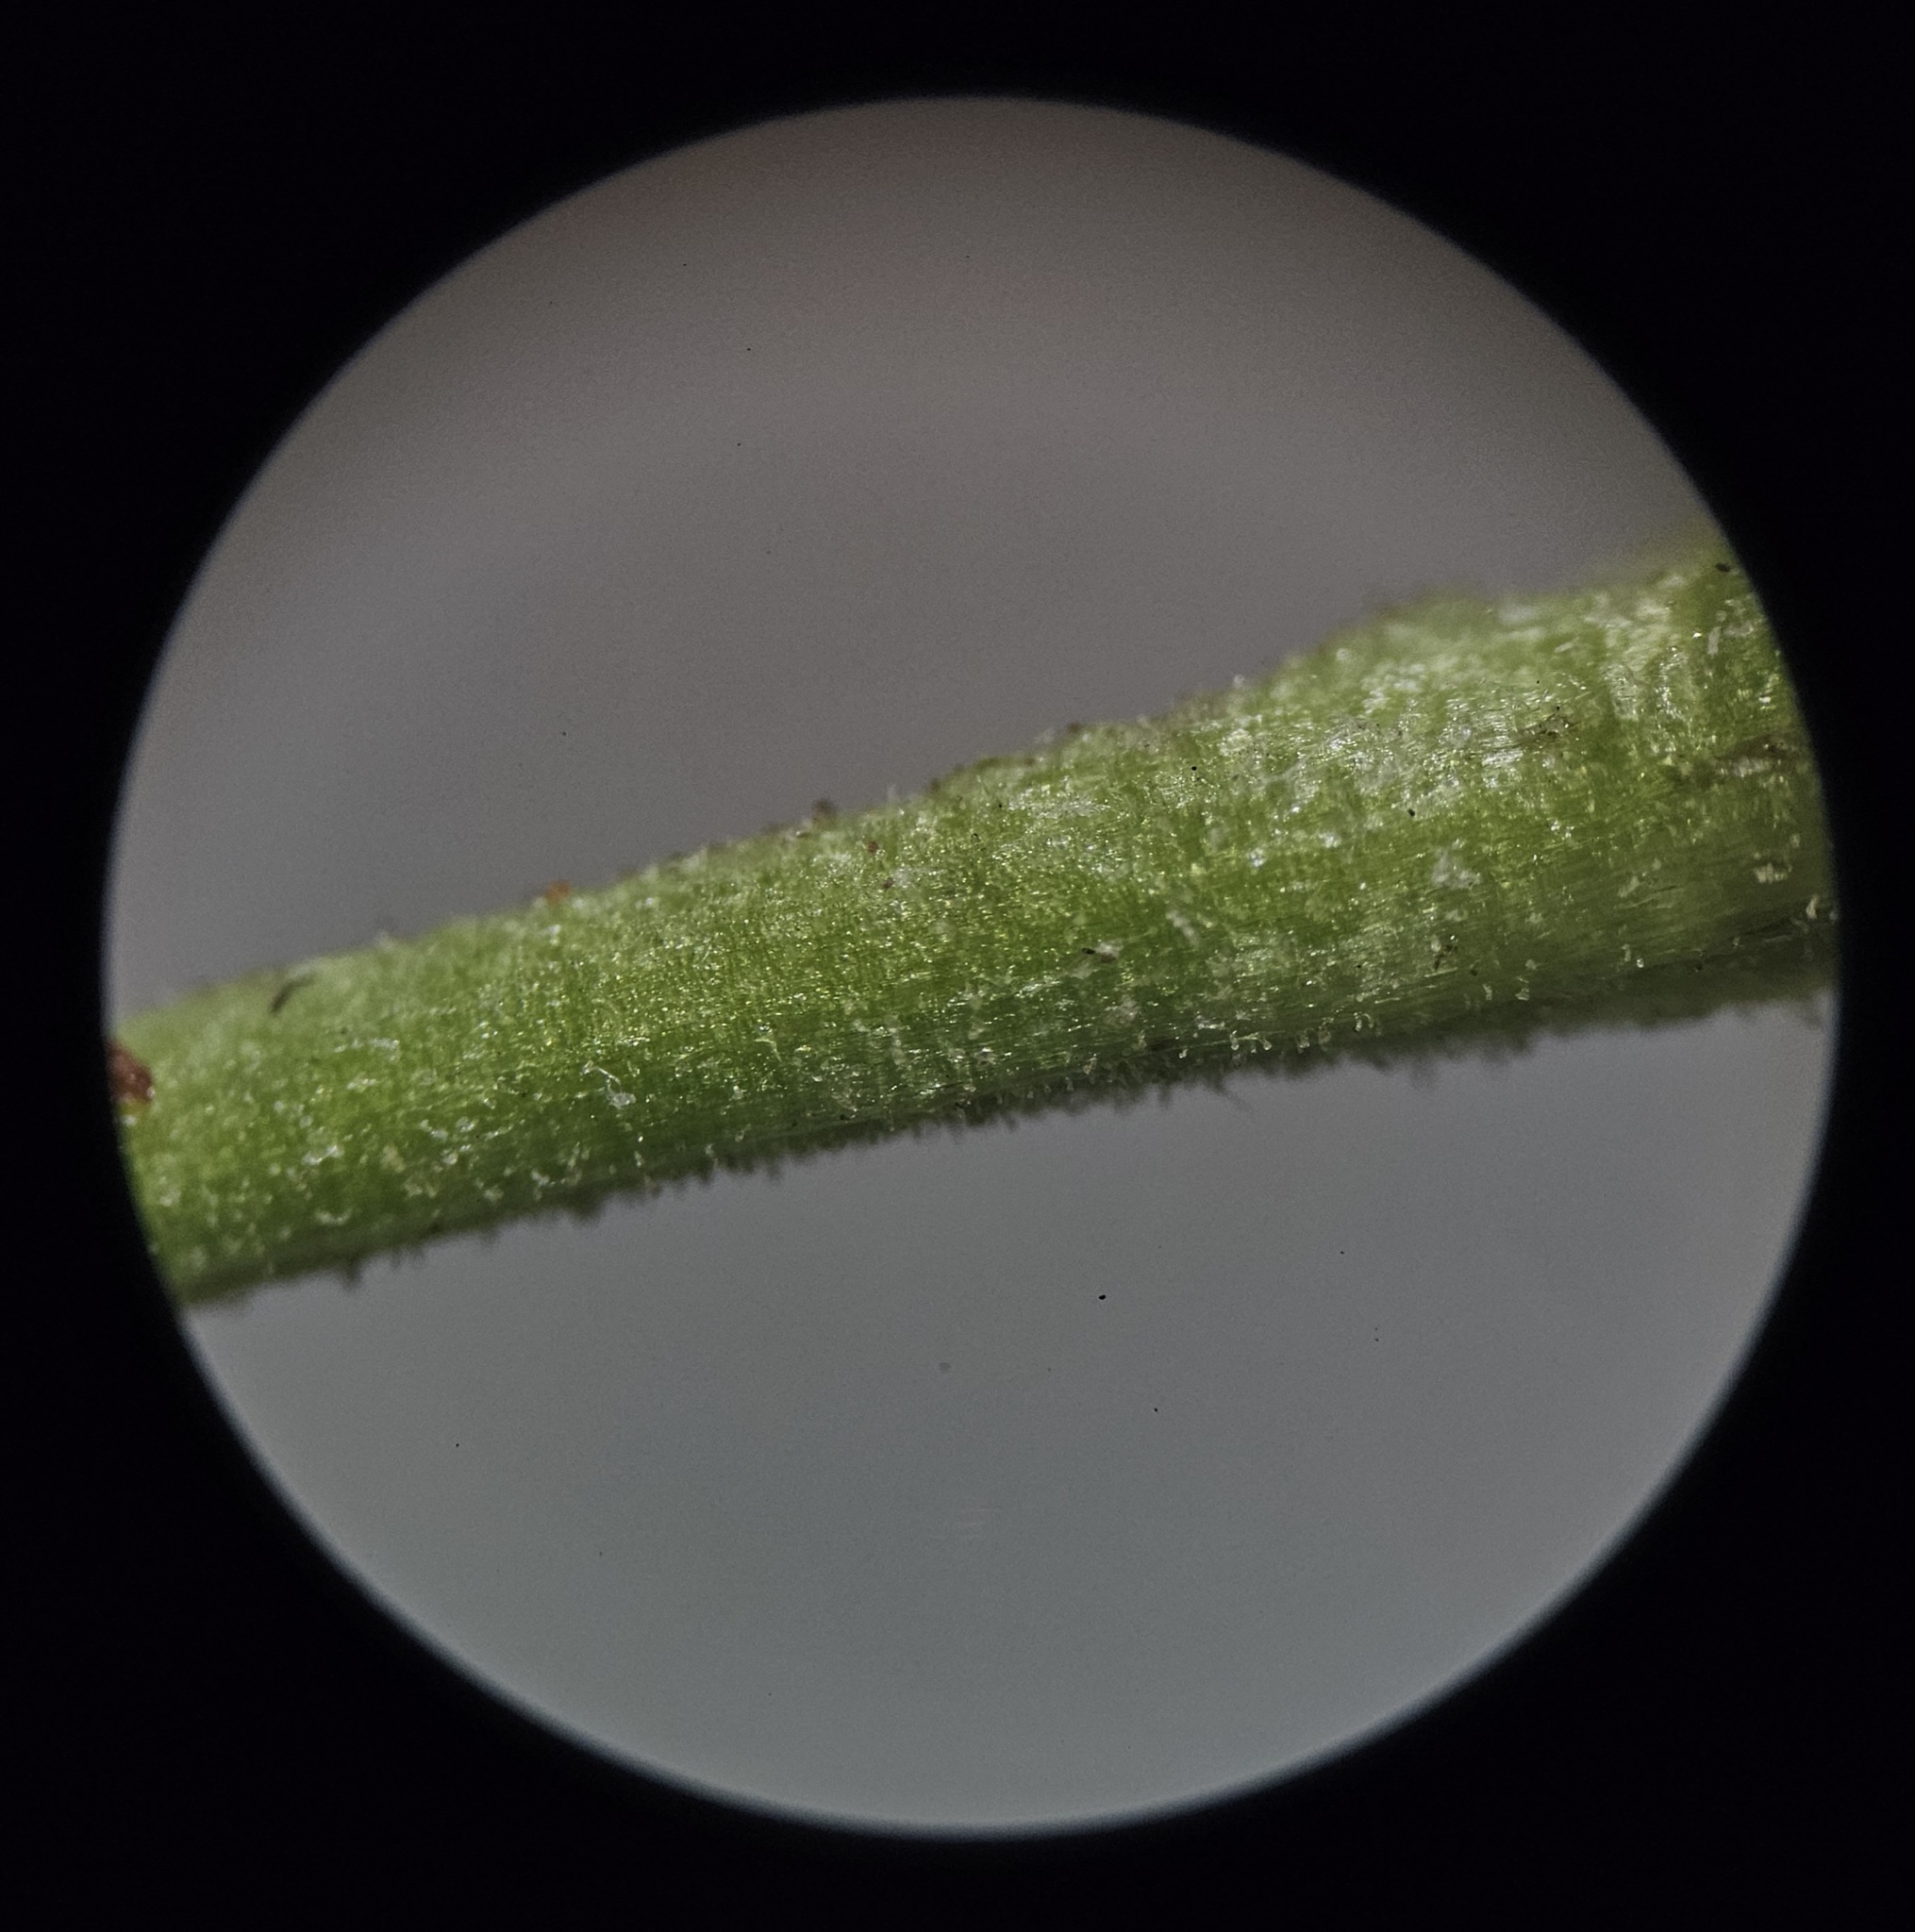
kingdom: Plantae
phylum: Tracheophyta
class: Magnoliopsida
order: Asterales
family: Asteraceae
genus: Eurybia
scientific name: Eurybia macrophylla
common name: Big-leaved aster
